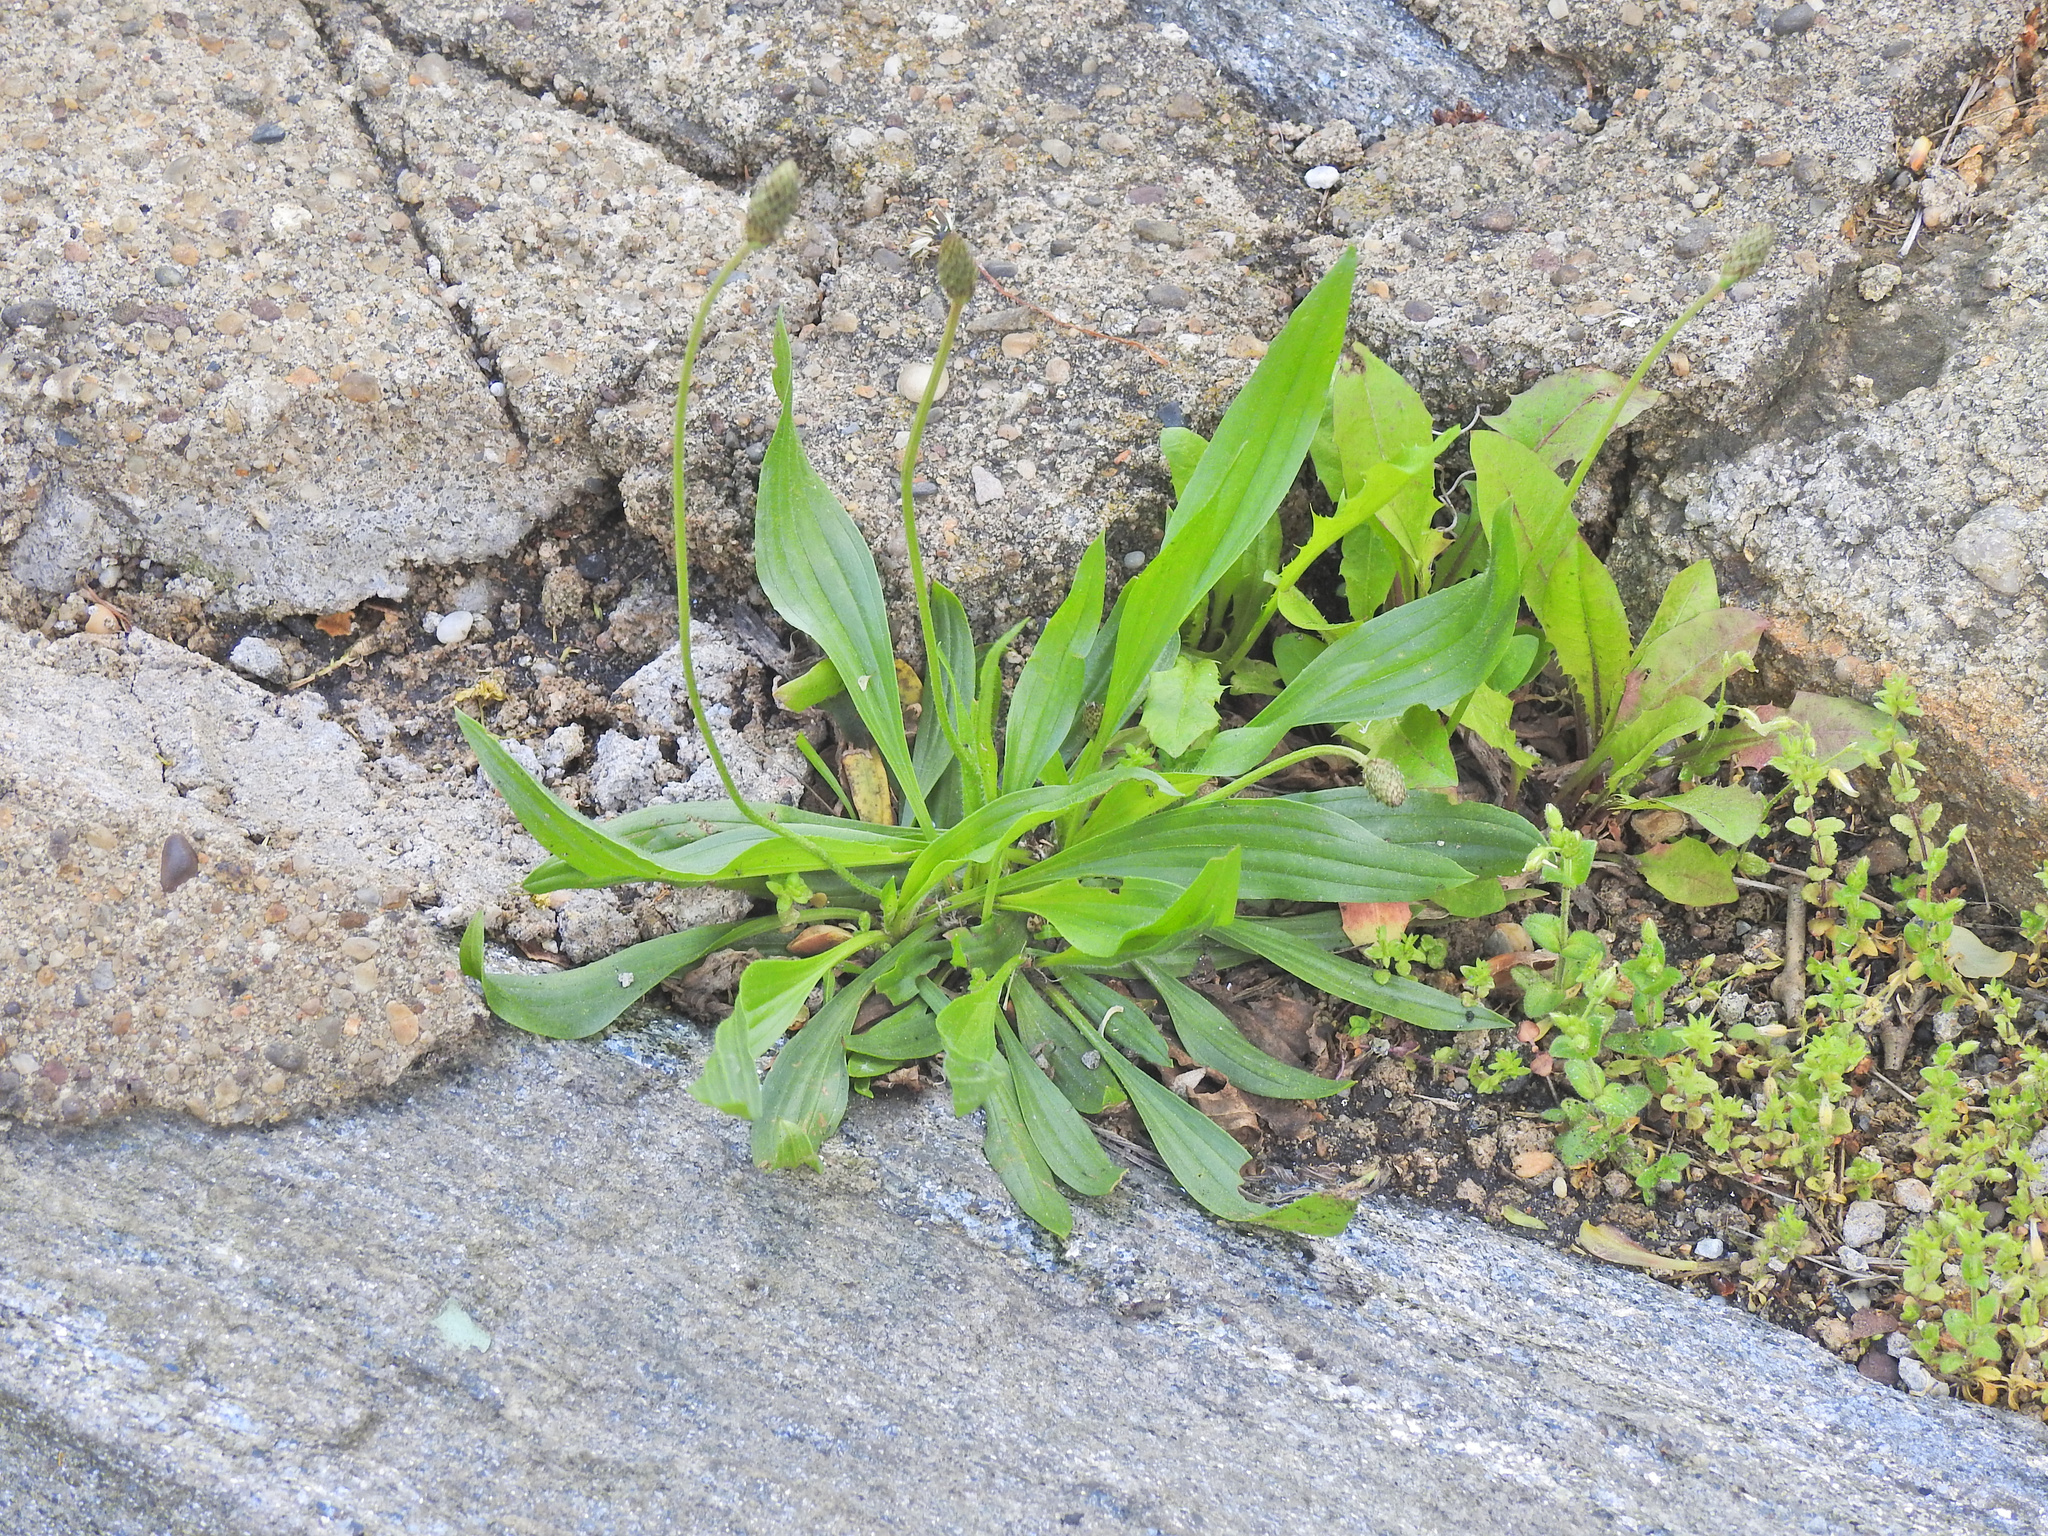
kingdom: Plantae
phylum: Tracheophyta
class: Magnoliopsida
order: Lamiales
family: Plantaginaceae
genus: Plantago
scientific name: Plantago lanceolata
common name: Ribwort plantain
